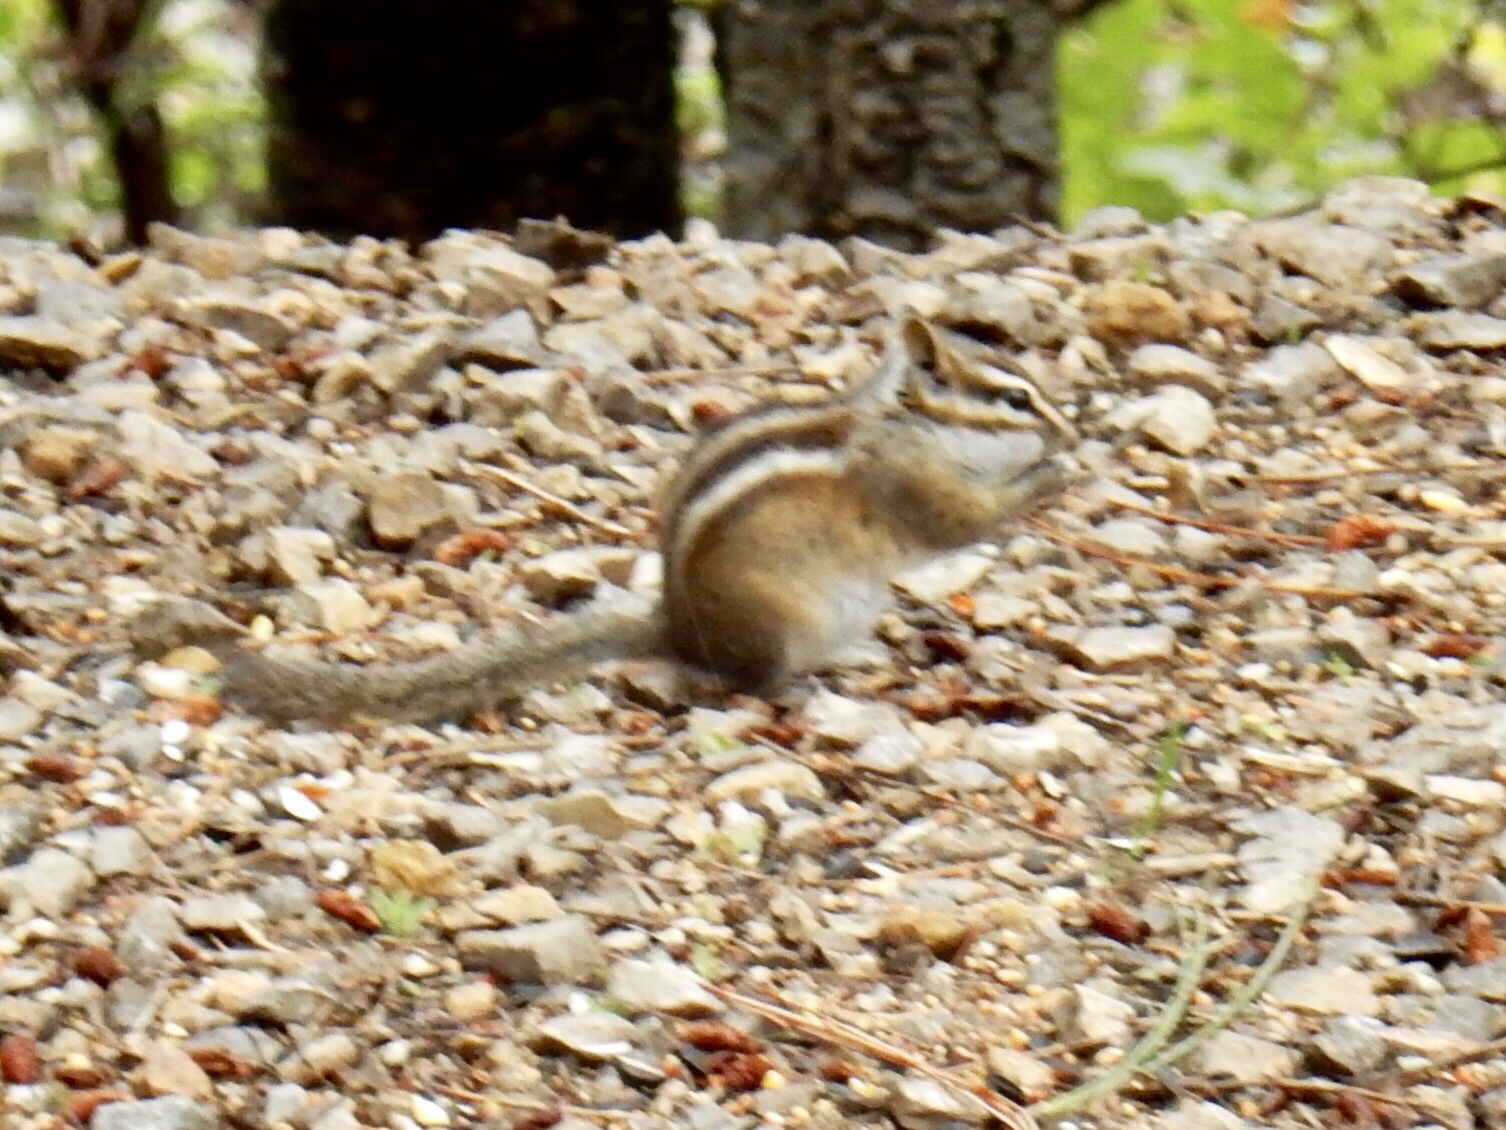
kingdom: Animalia
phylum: Chordata
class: Mammalia
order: Rodentia
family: Sciuridae
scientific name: Sciuridae
